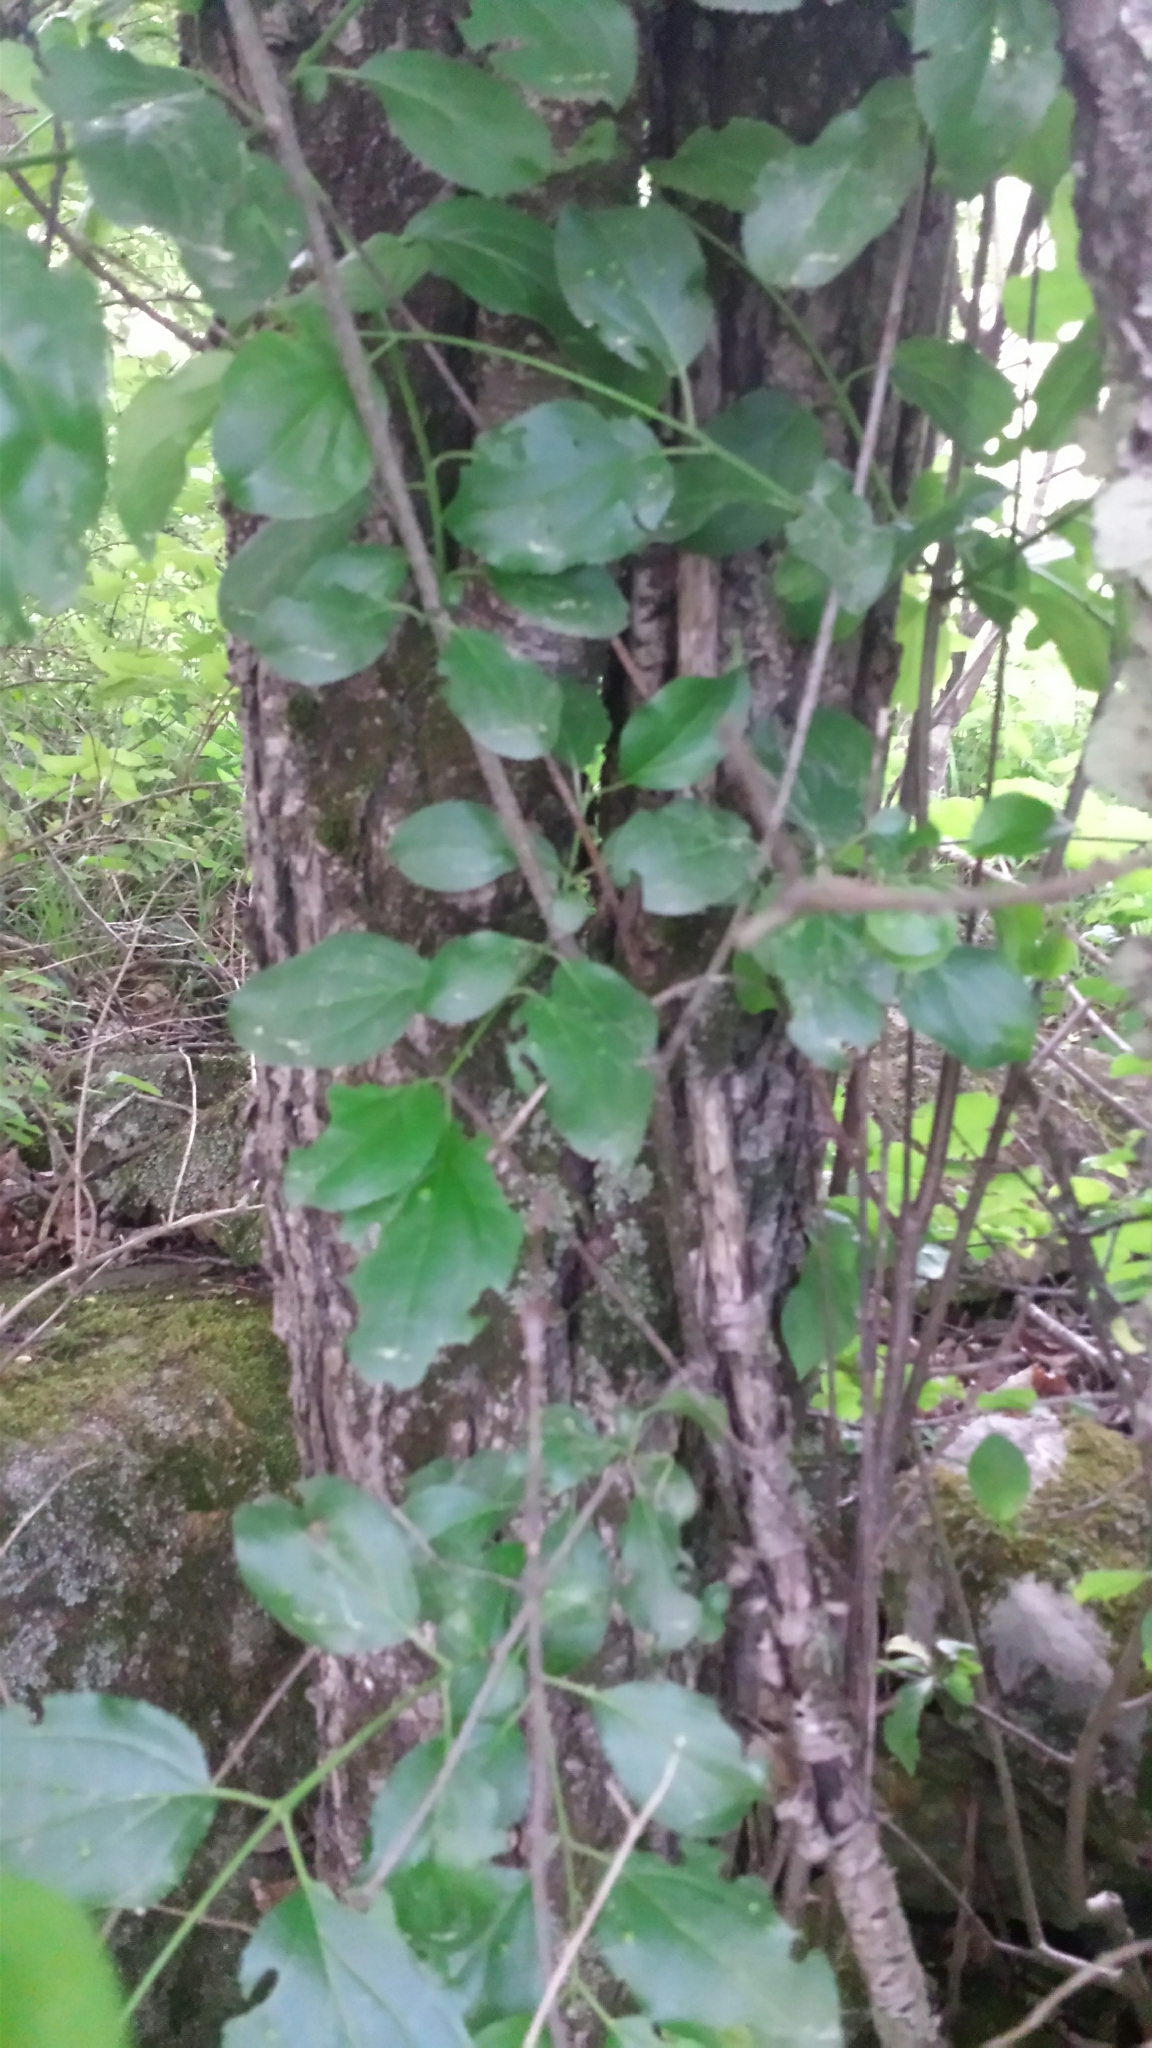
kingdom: Plantae
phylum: Tracheophyta
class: Magnoliopsida
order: Rosales
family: Rhamnaceae
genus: Rhamnus
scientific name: Rhamnus cathartica
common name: Common buckthorn
